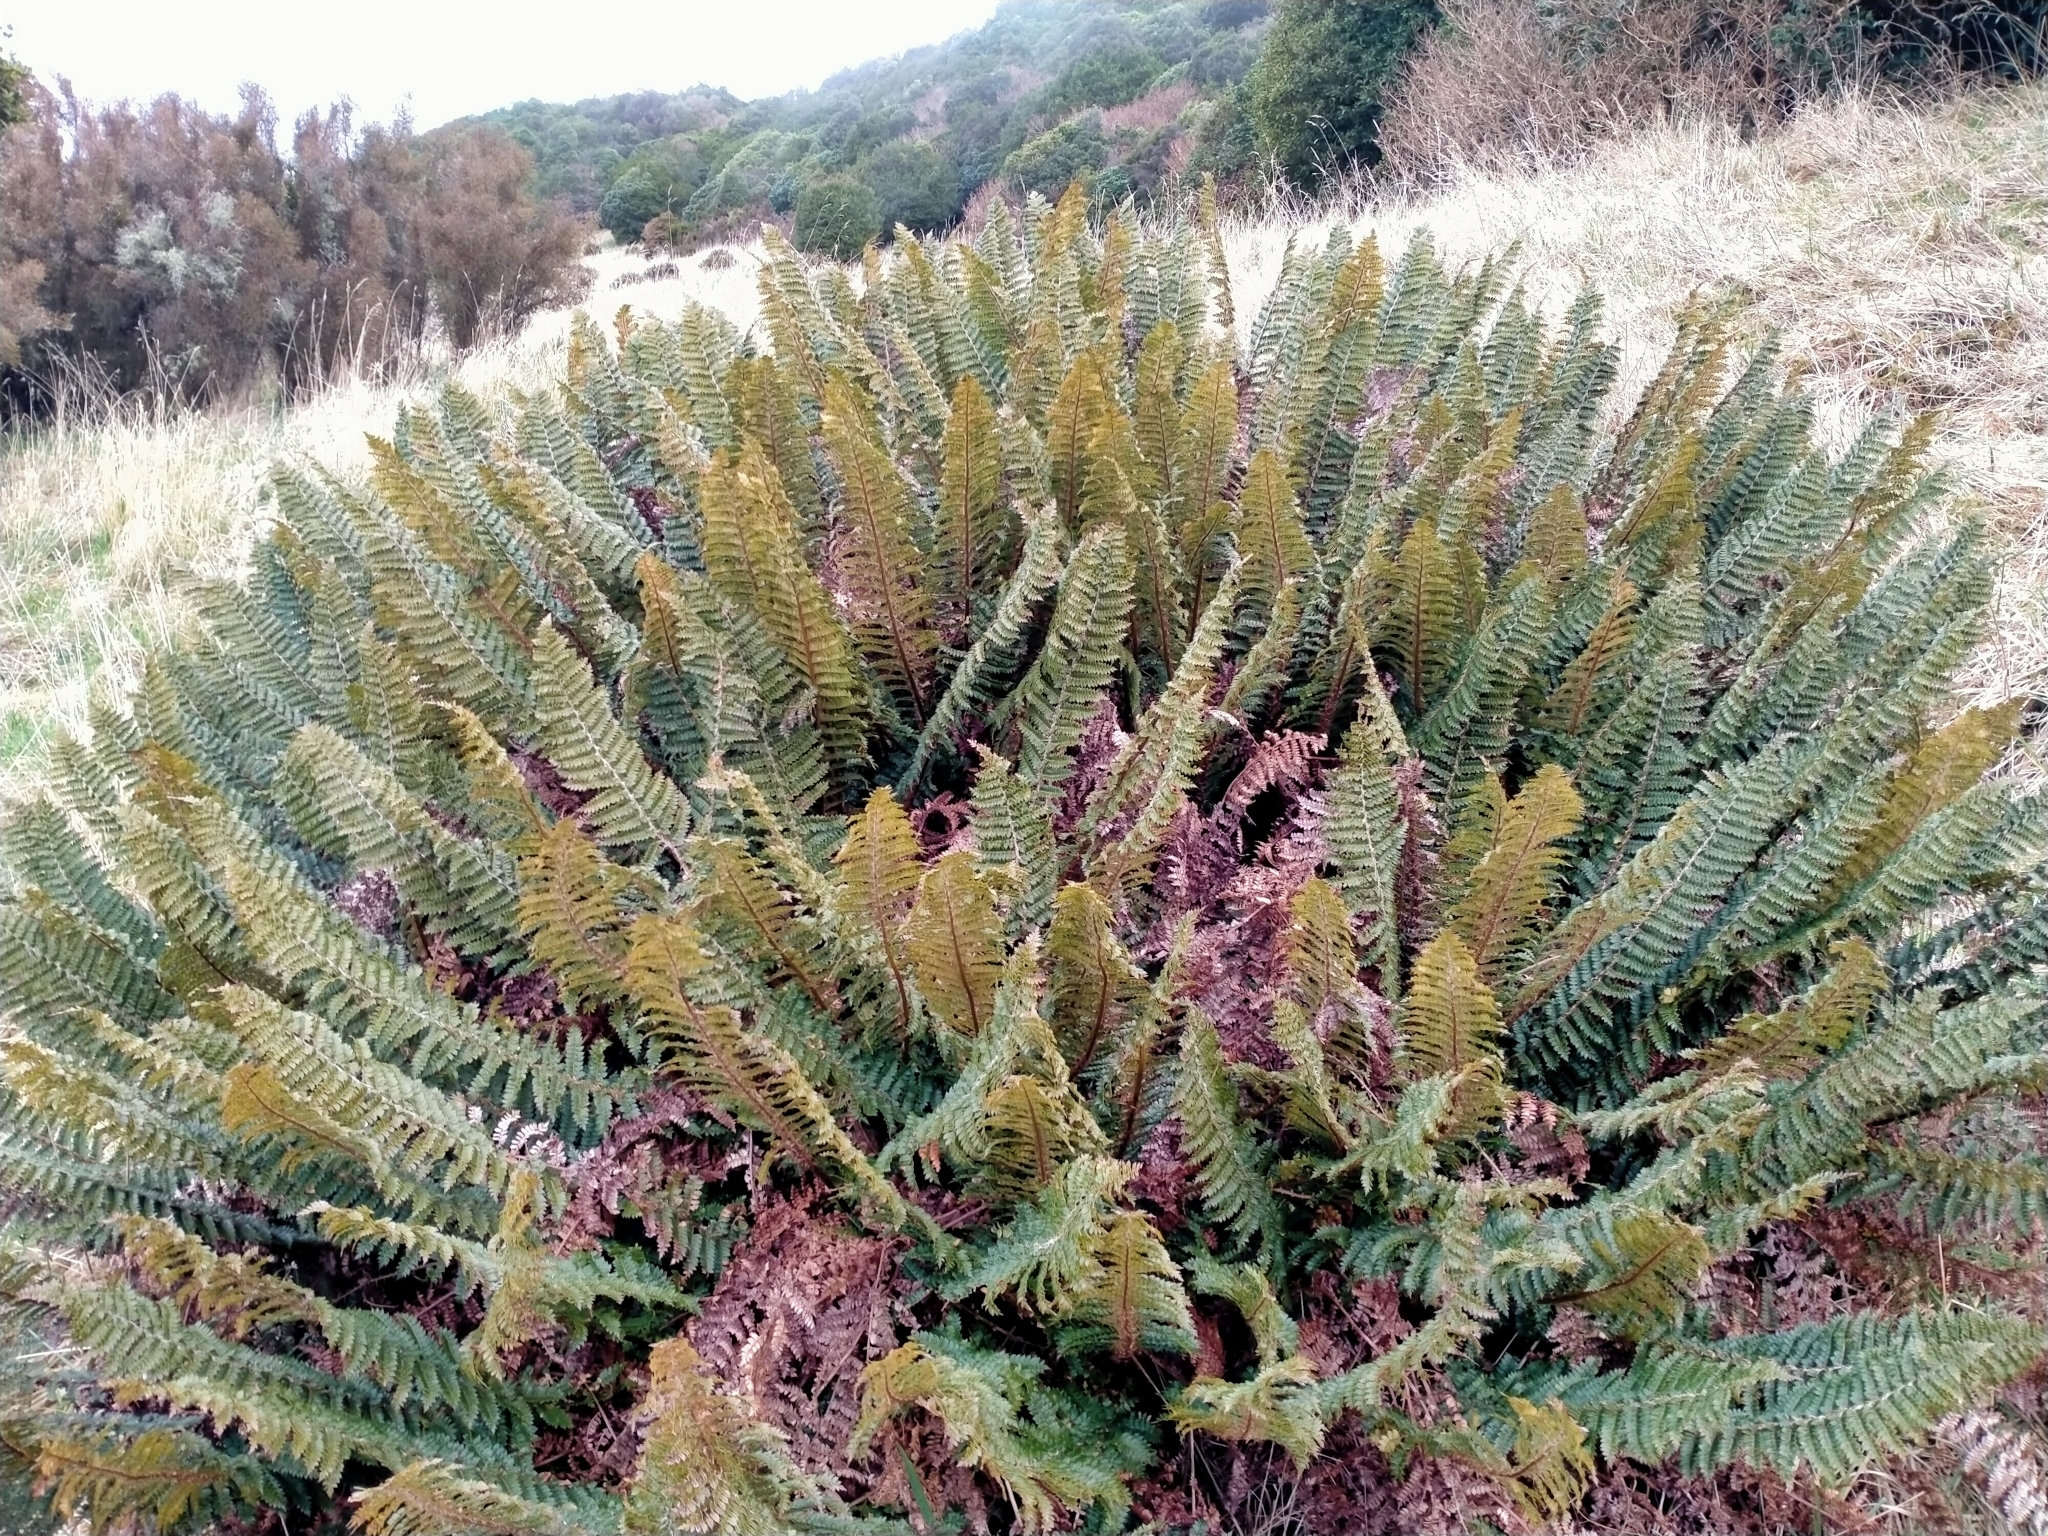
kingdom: Plantae
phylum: Tracheophyta
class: Polypodiopsida
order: Polypodiales
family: Dryopteridaceae
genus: Polystichum
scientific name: Polystichum vestitum
